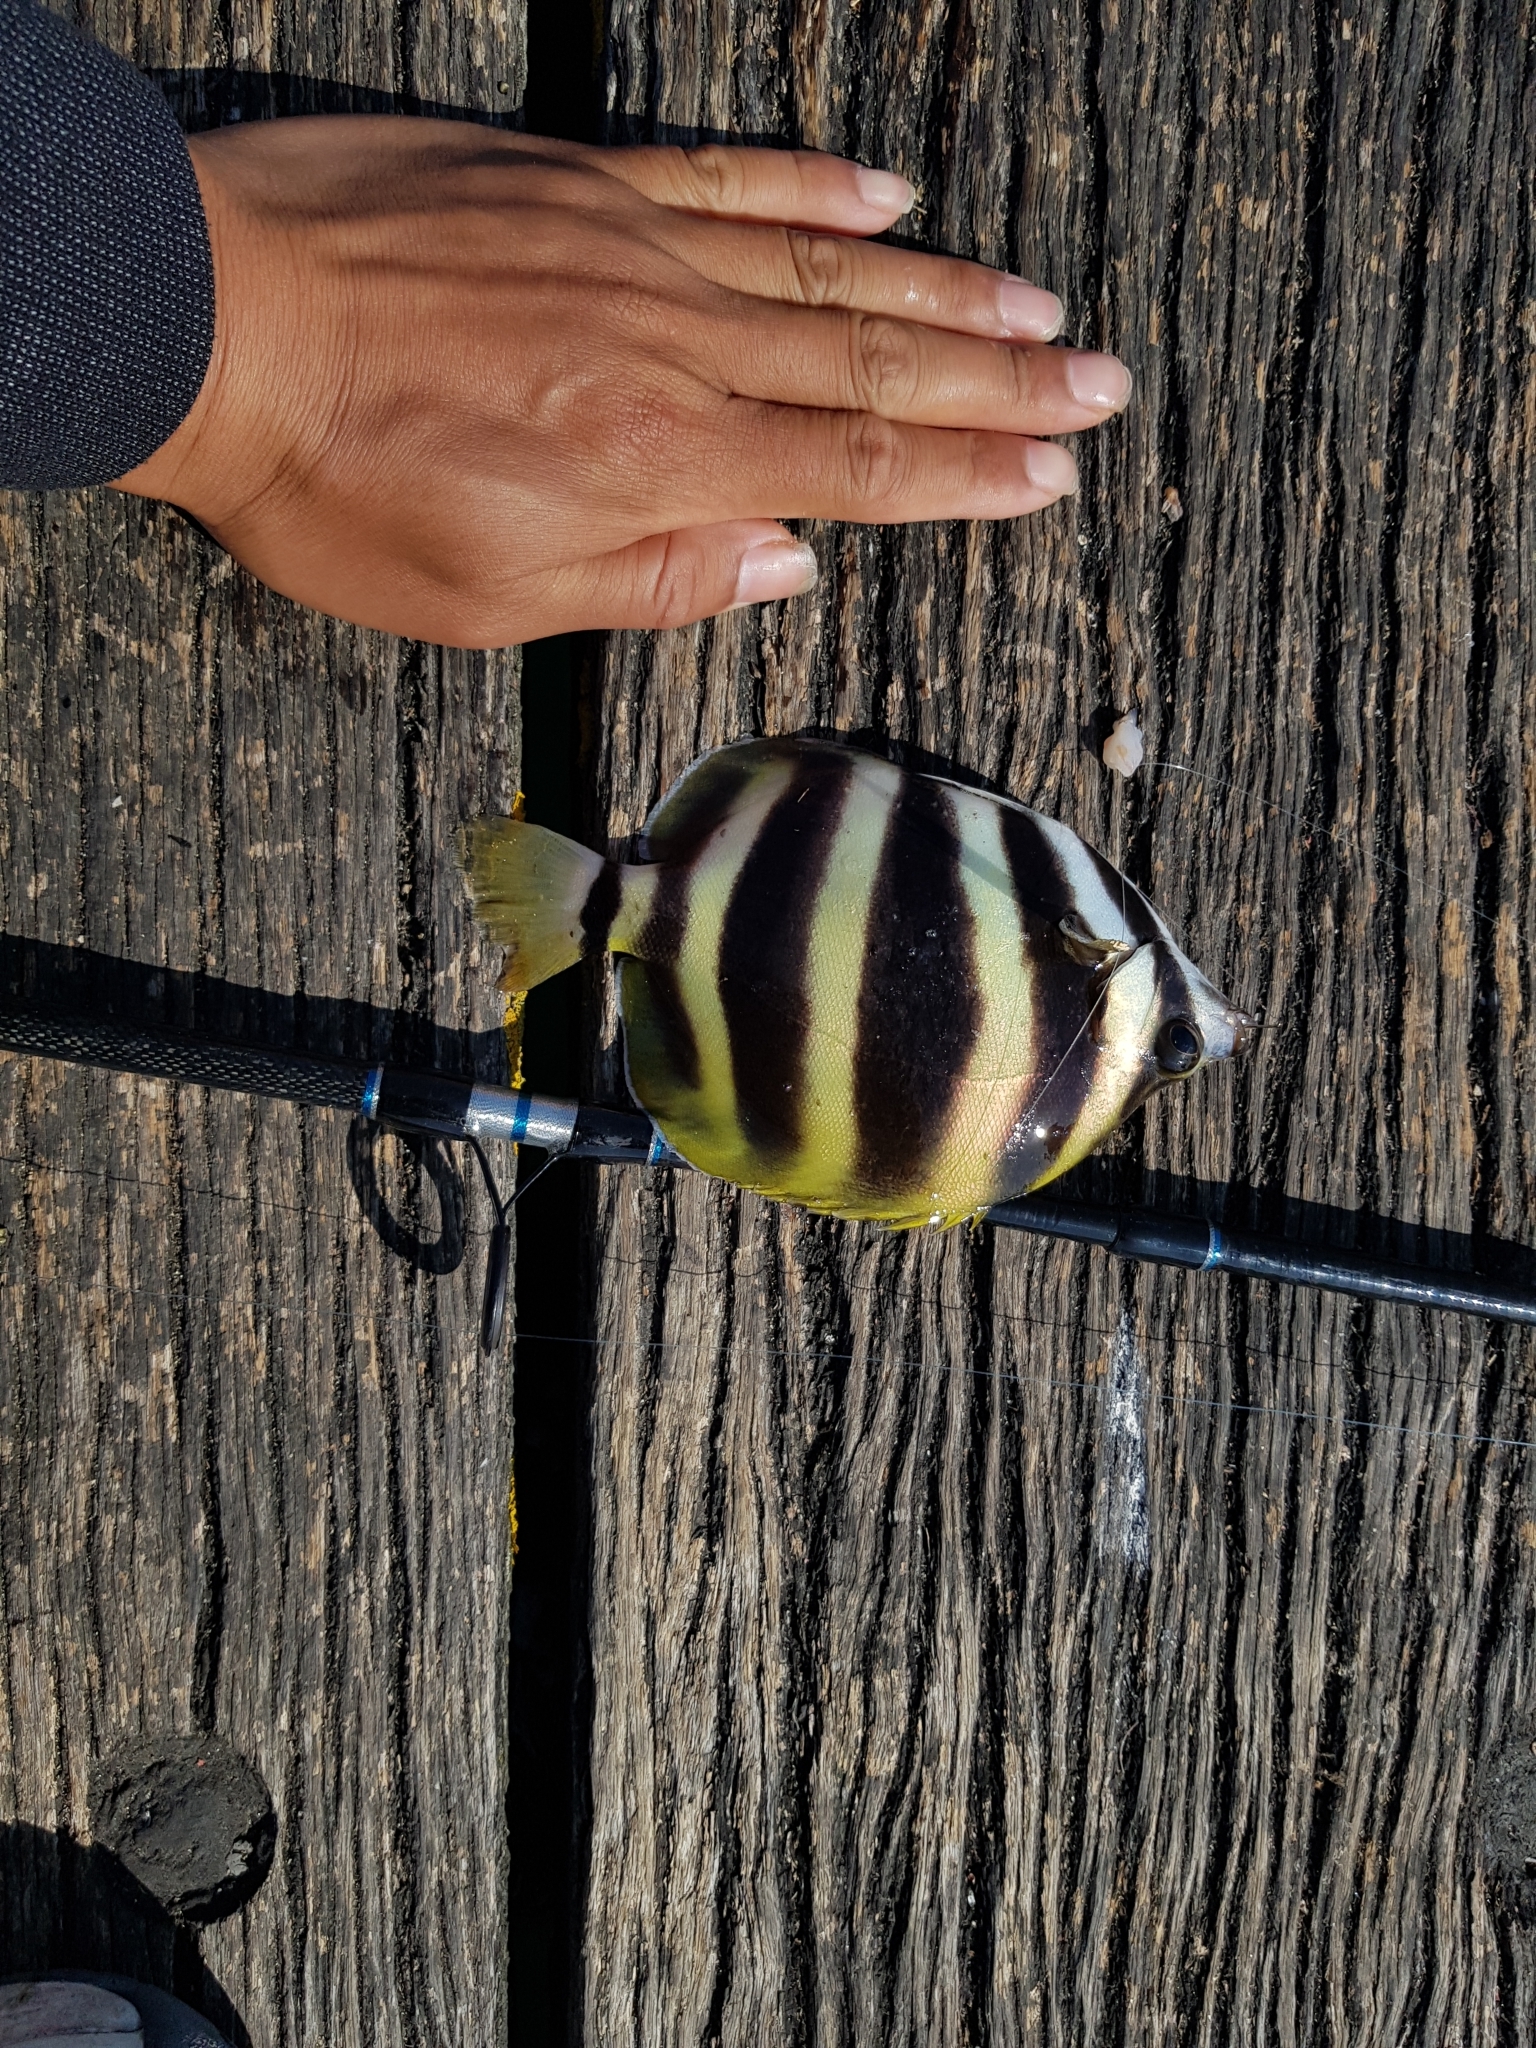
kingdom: Animalia
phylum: Chordata
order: Perciformes
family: Kyphosidae
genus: Tilodon
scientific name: Tilodon sexfasciatus
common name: Moonlighter
